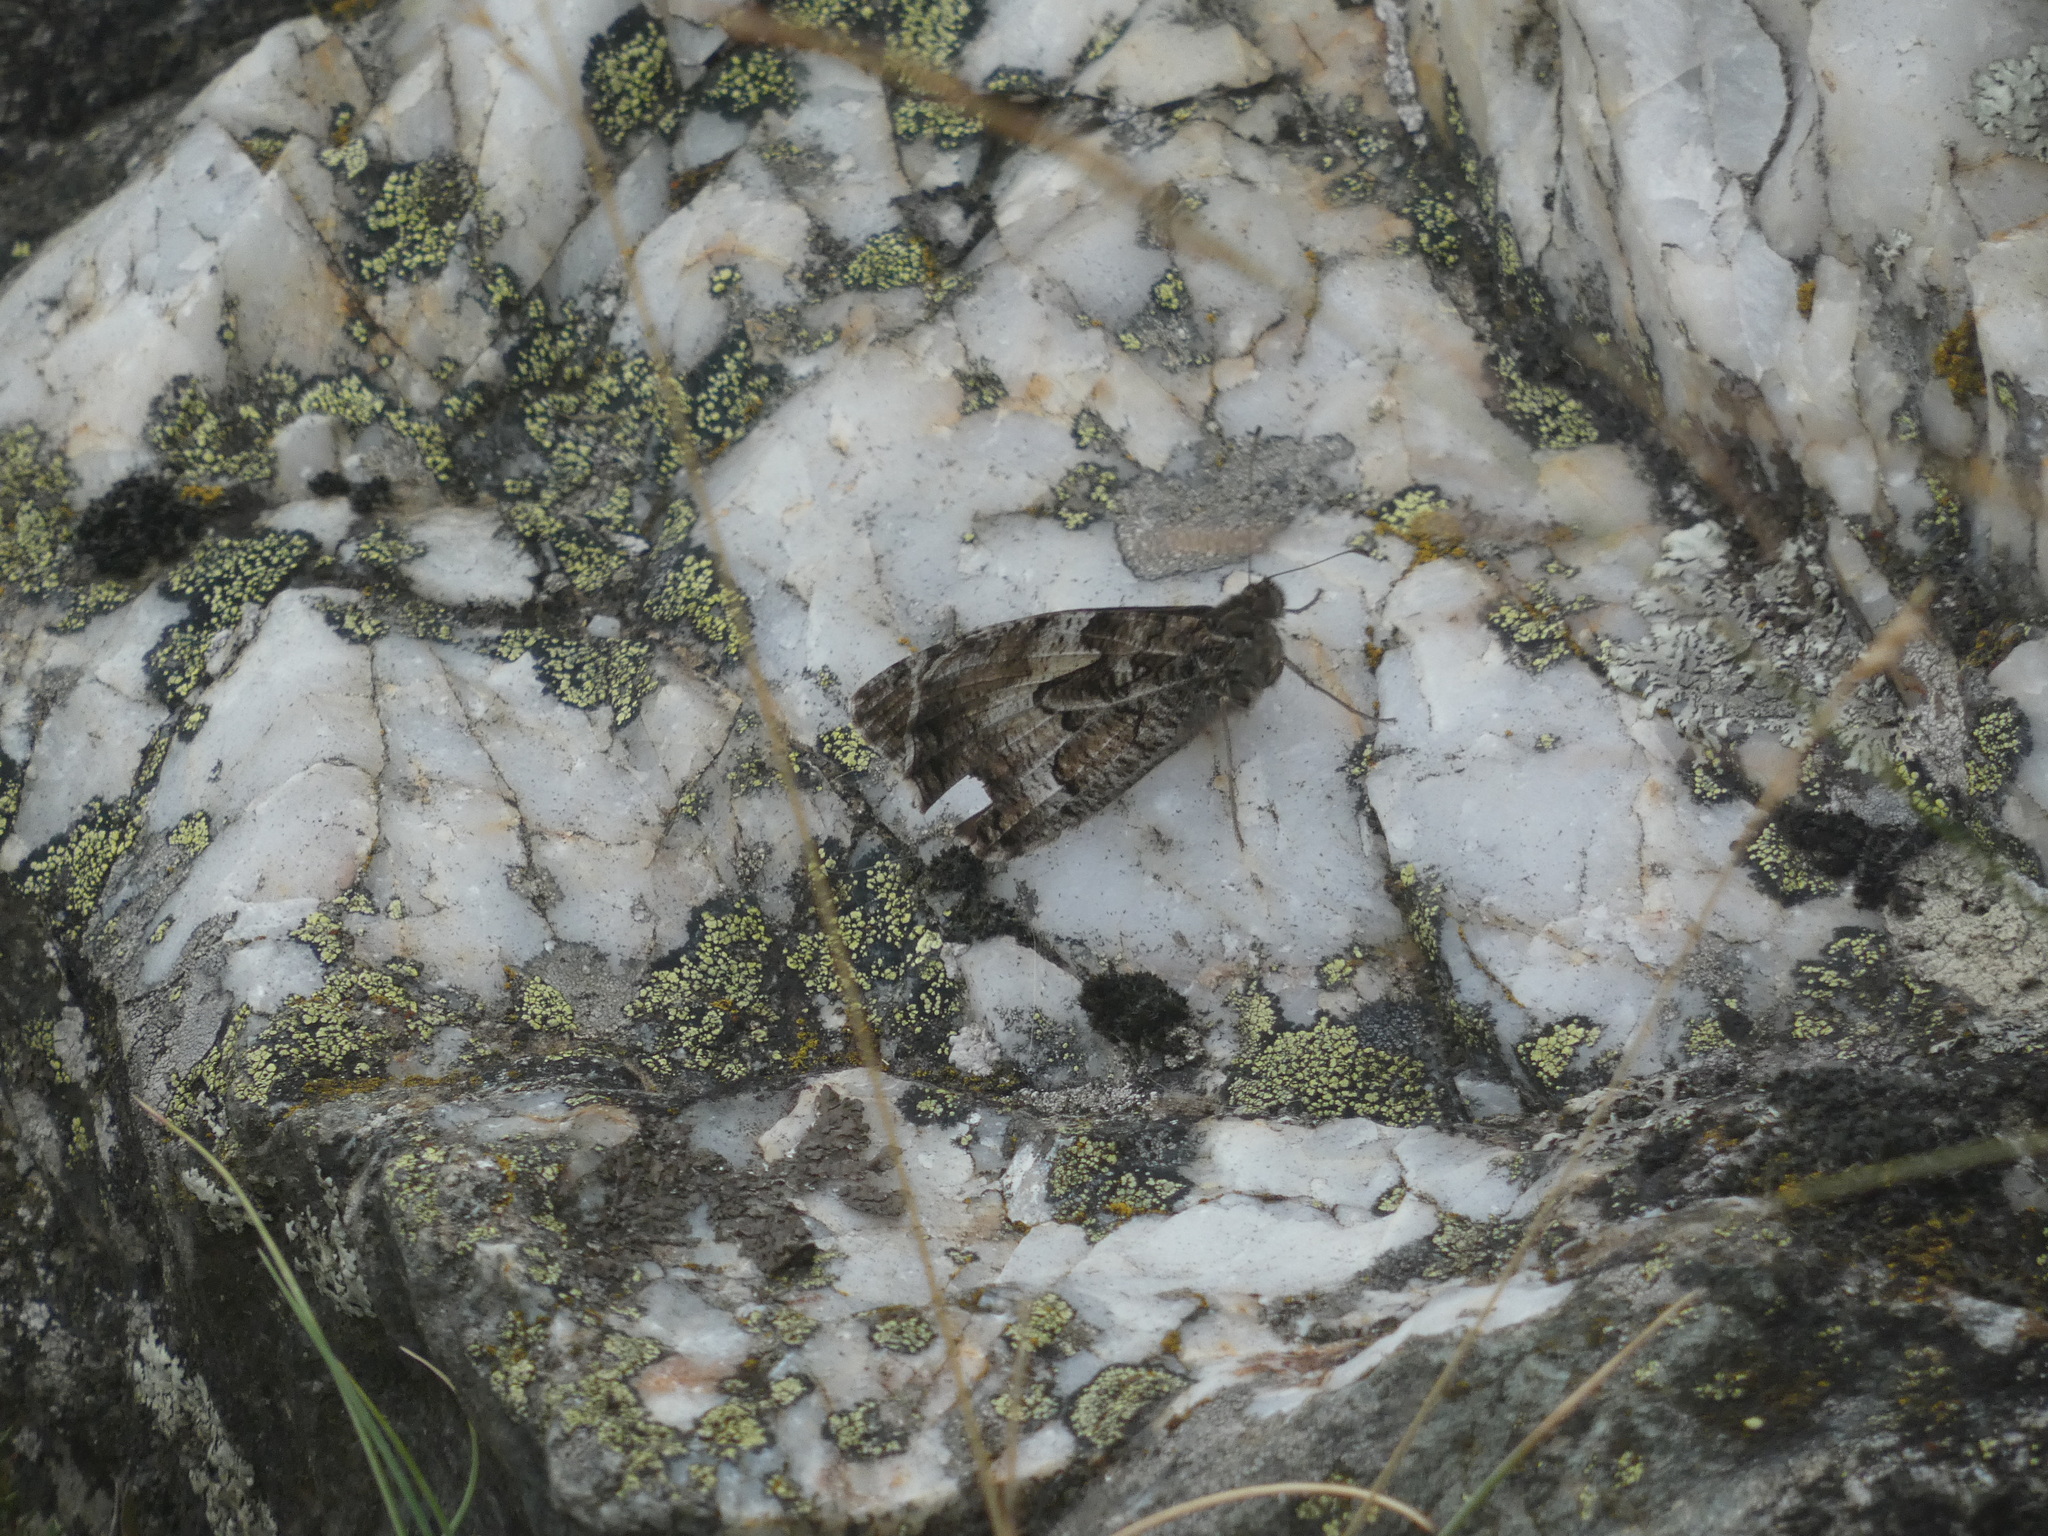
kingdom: Animalia
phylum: Arthropoda
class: Insecta
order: Lepidoptera
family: Nymphalidae
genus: Hipparchia
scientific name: Hipparchia semele
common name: Grayling
